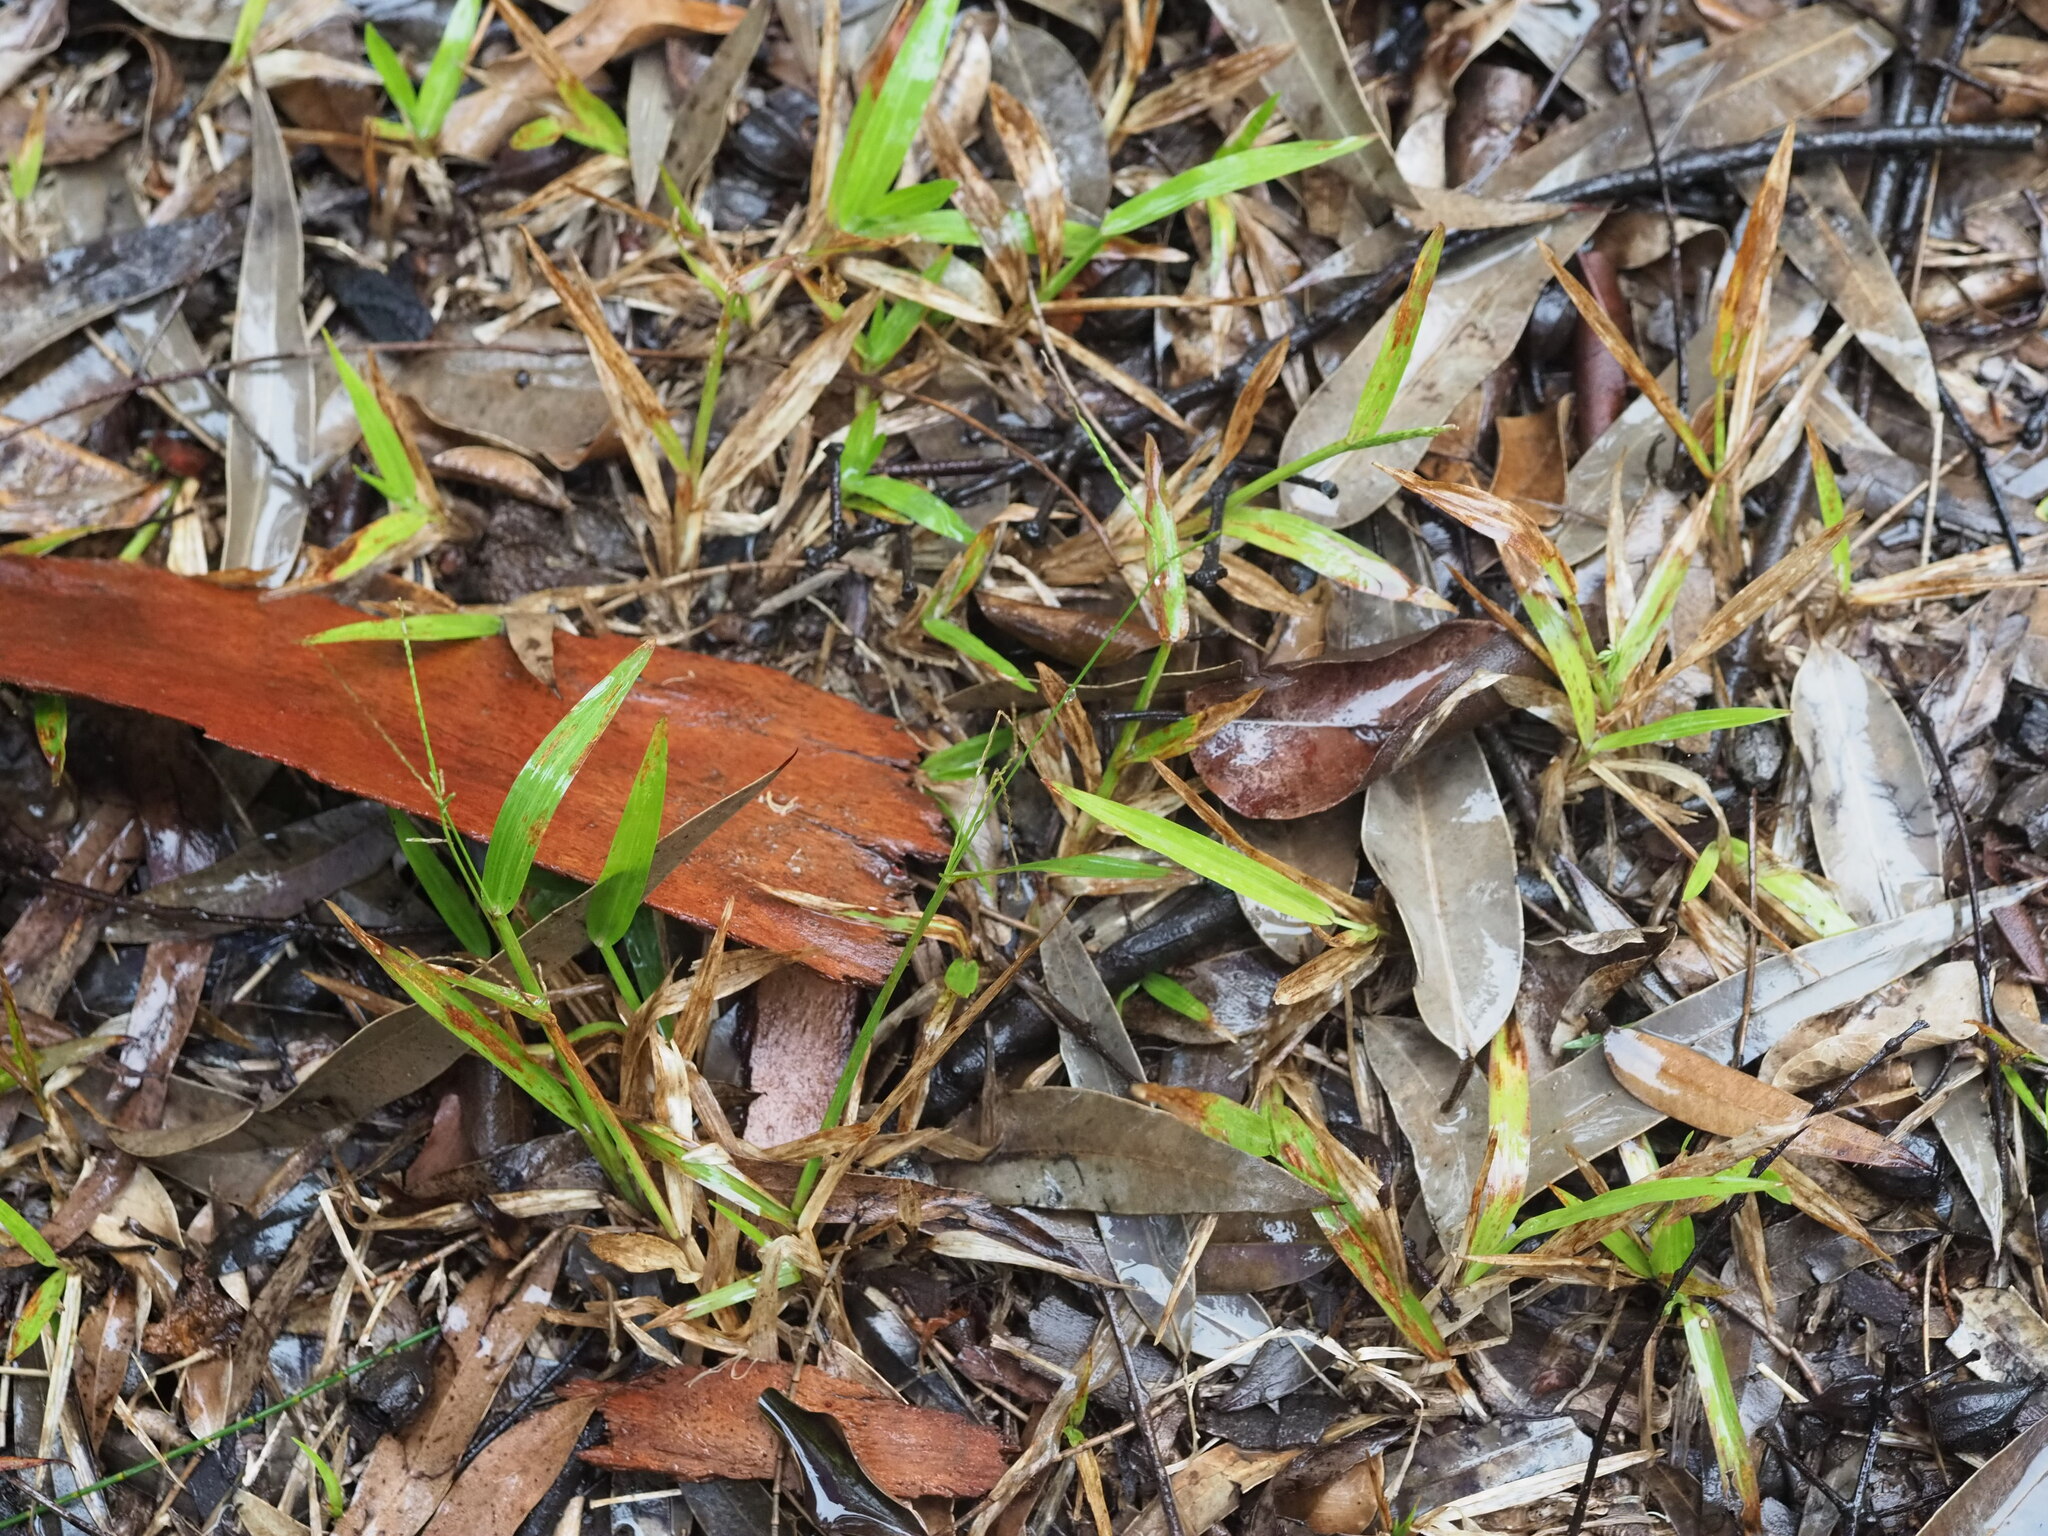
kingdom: Plantae
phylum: Tracheophyta
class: Liliopsida
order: Poales
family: Poaceae
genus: Axonopus
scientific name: Axonopus compressus
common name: American carpet grass
